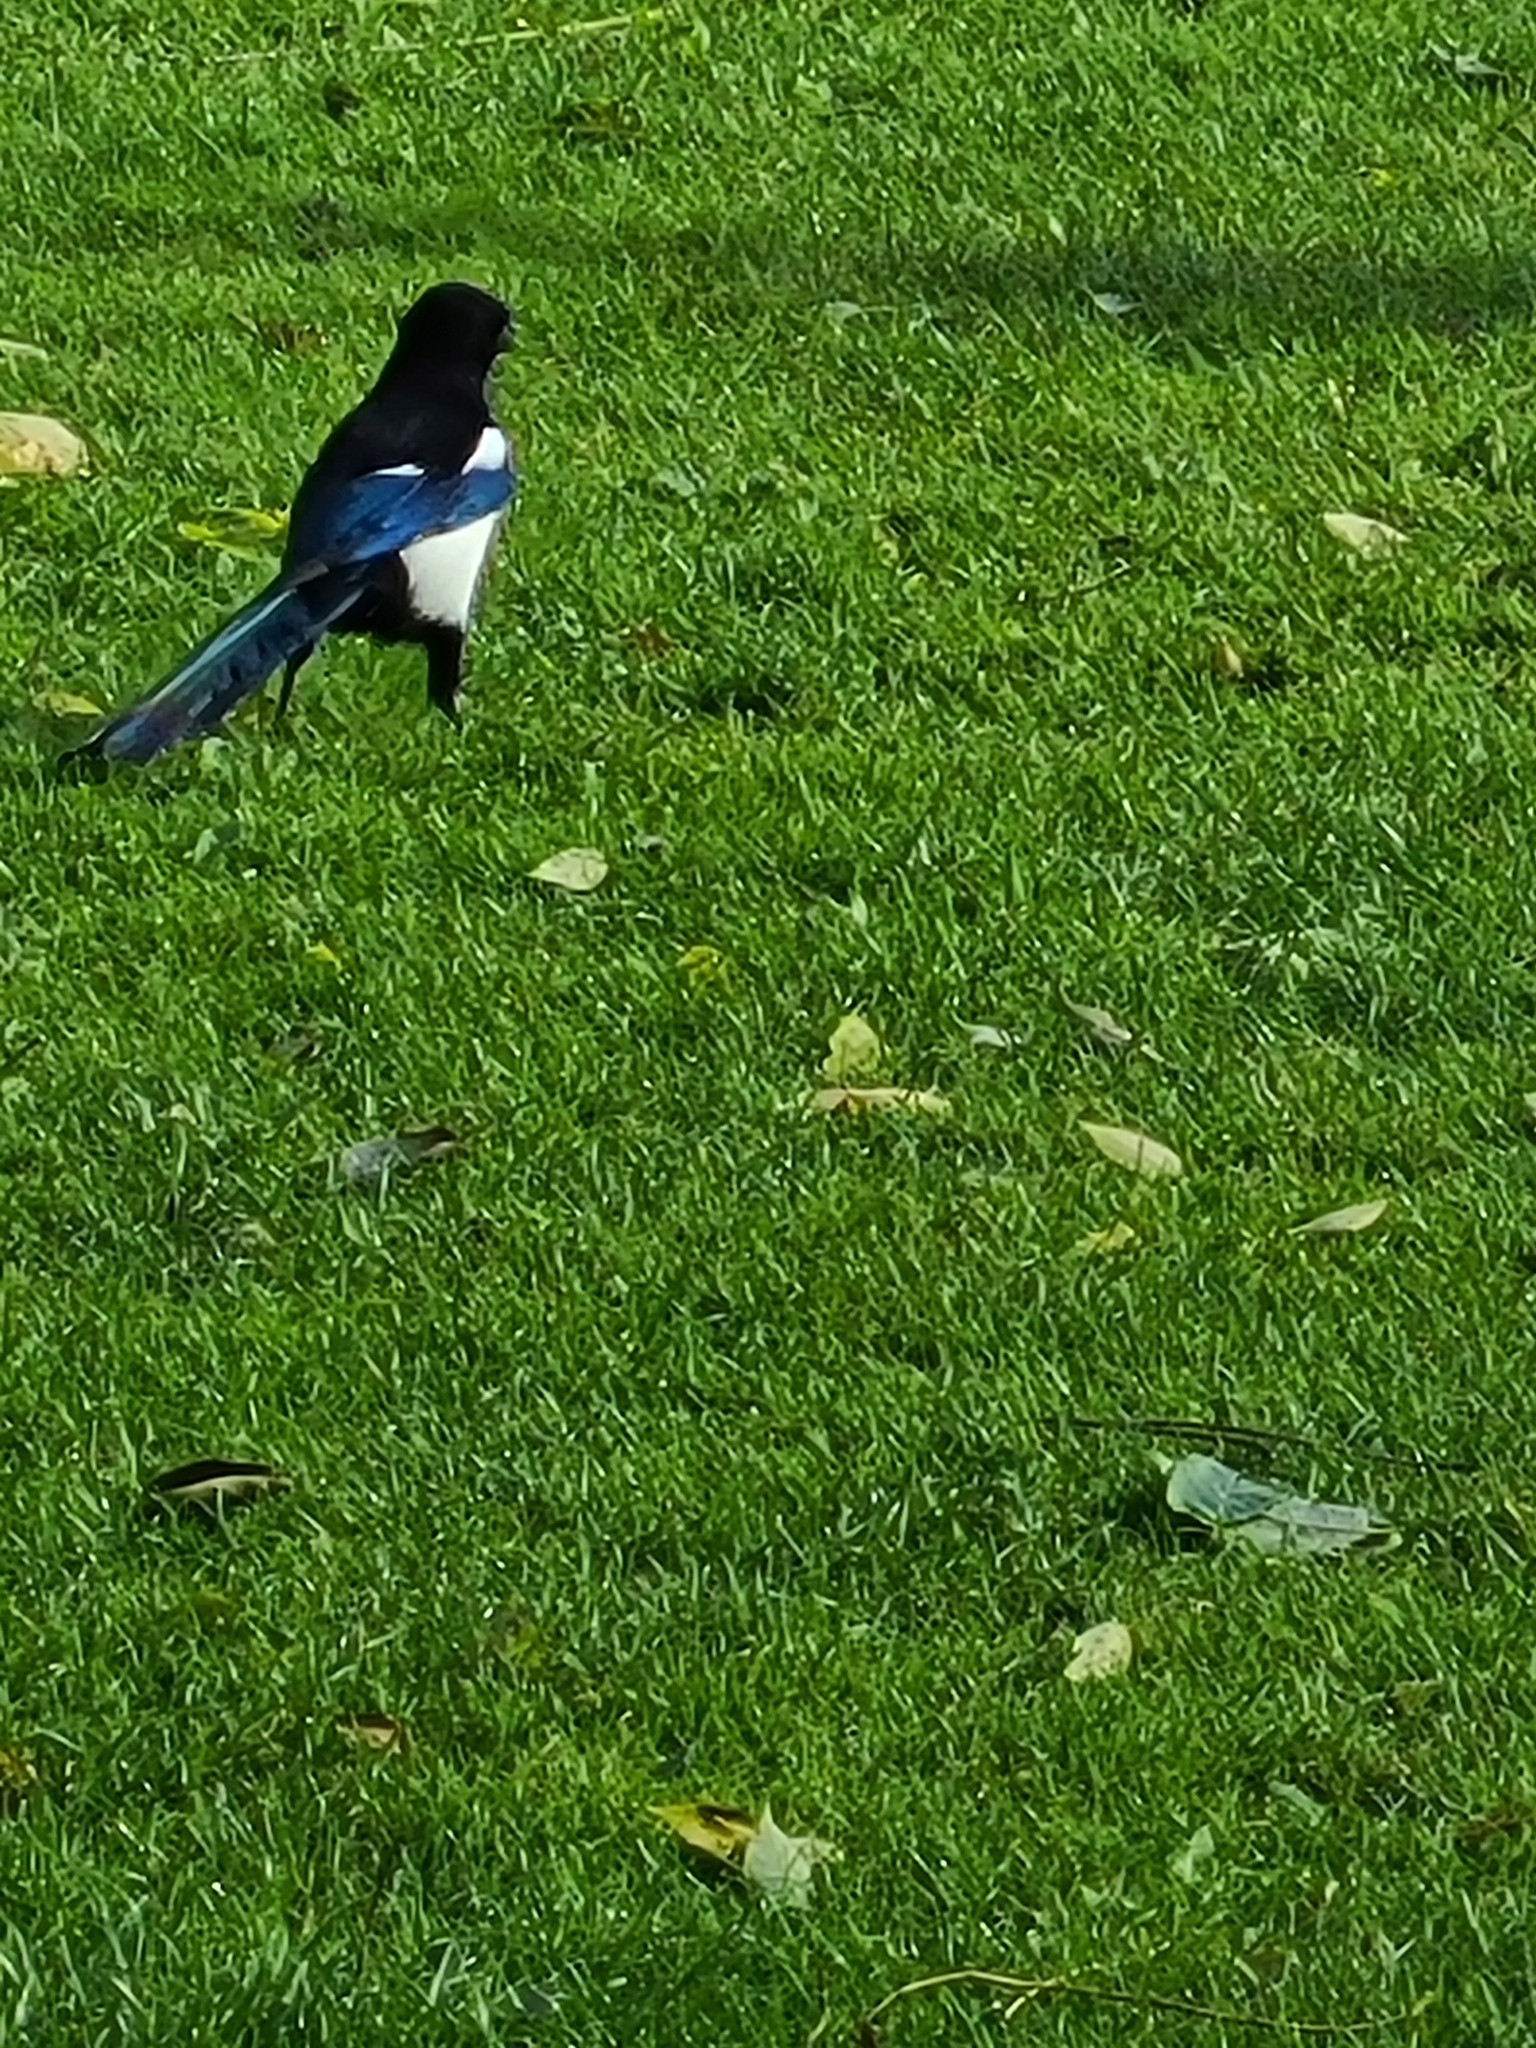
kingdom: Animalia
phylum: Chordata
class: Aves
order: Passeriformes
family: Corvidae
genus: Pica
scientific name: Pica pica
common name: Eurasian magpie
